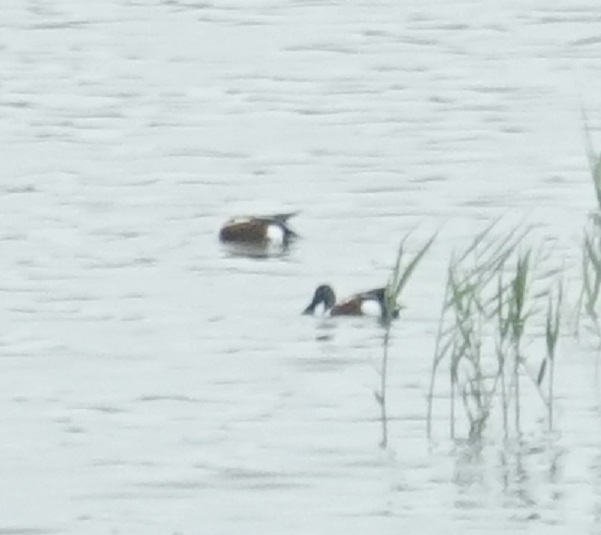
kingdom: Animalia
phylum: Chordata
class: Aves
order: Anseriformes
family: Anatidae
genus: Spatula
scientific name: Spatula clypeata
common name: Northern shoveler
